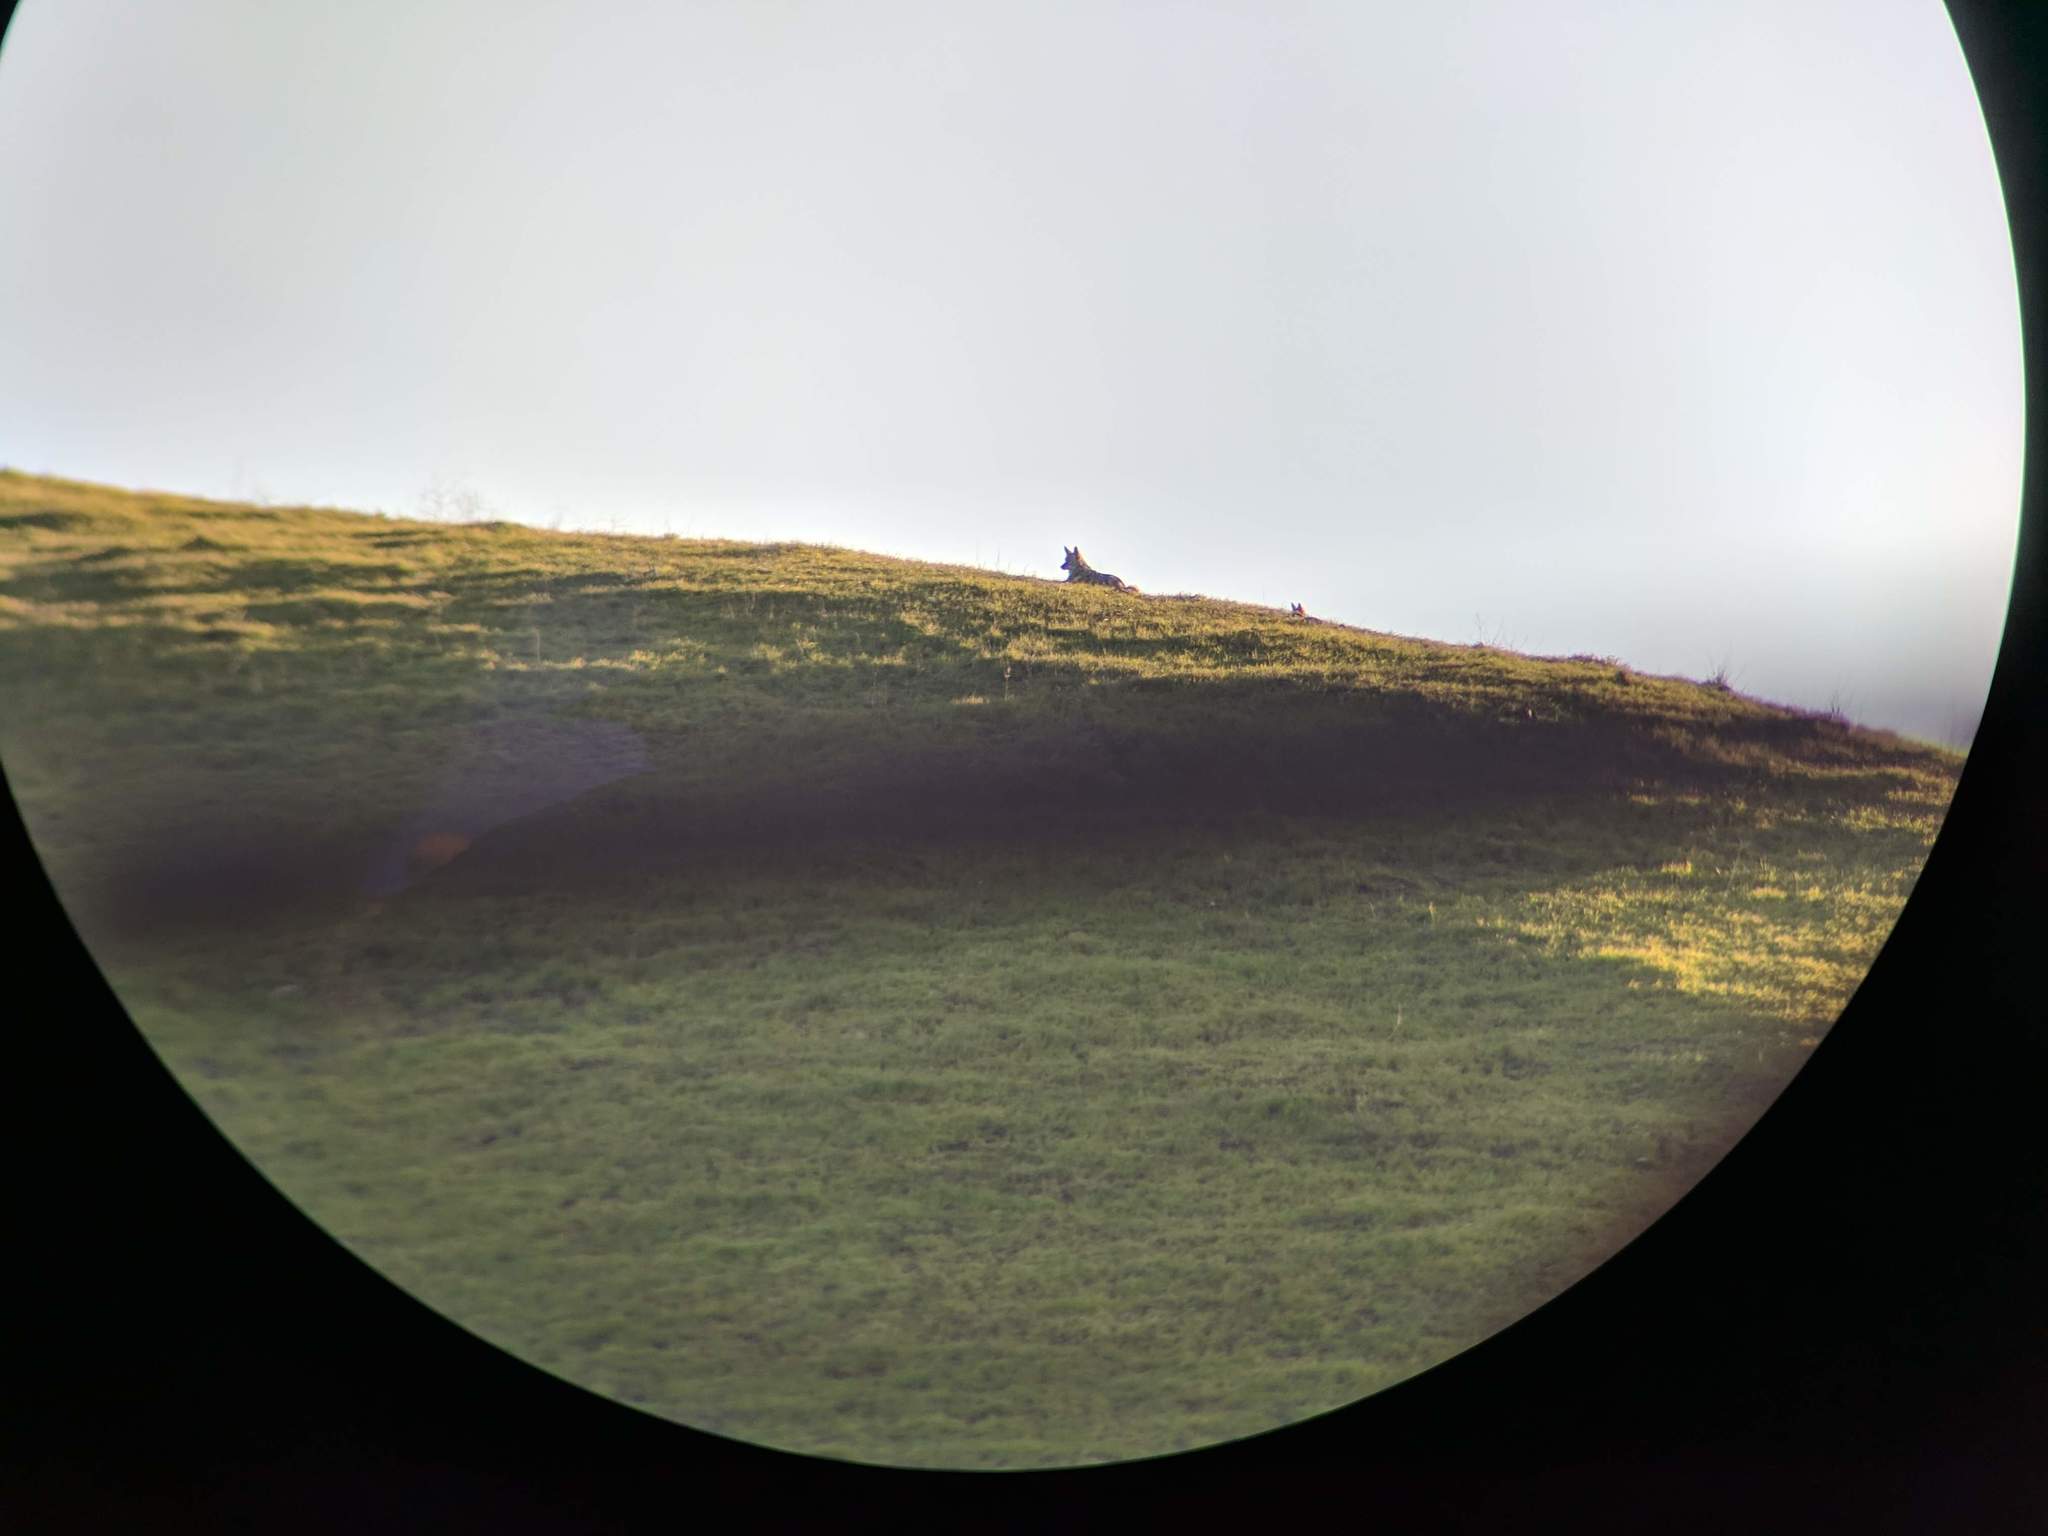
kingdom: Animalia
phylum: Chordata
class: Mammalia
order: Carnivora
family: Canidae
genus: Canis
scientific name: Canis latrans
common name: Coyote
